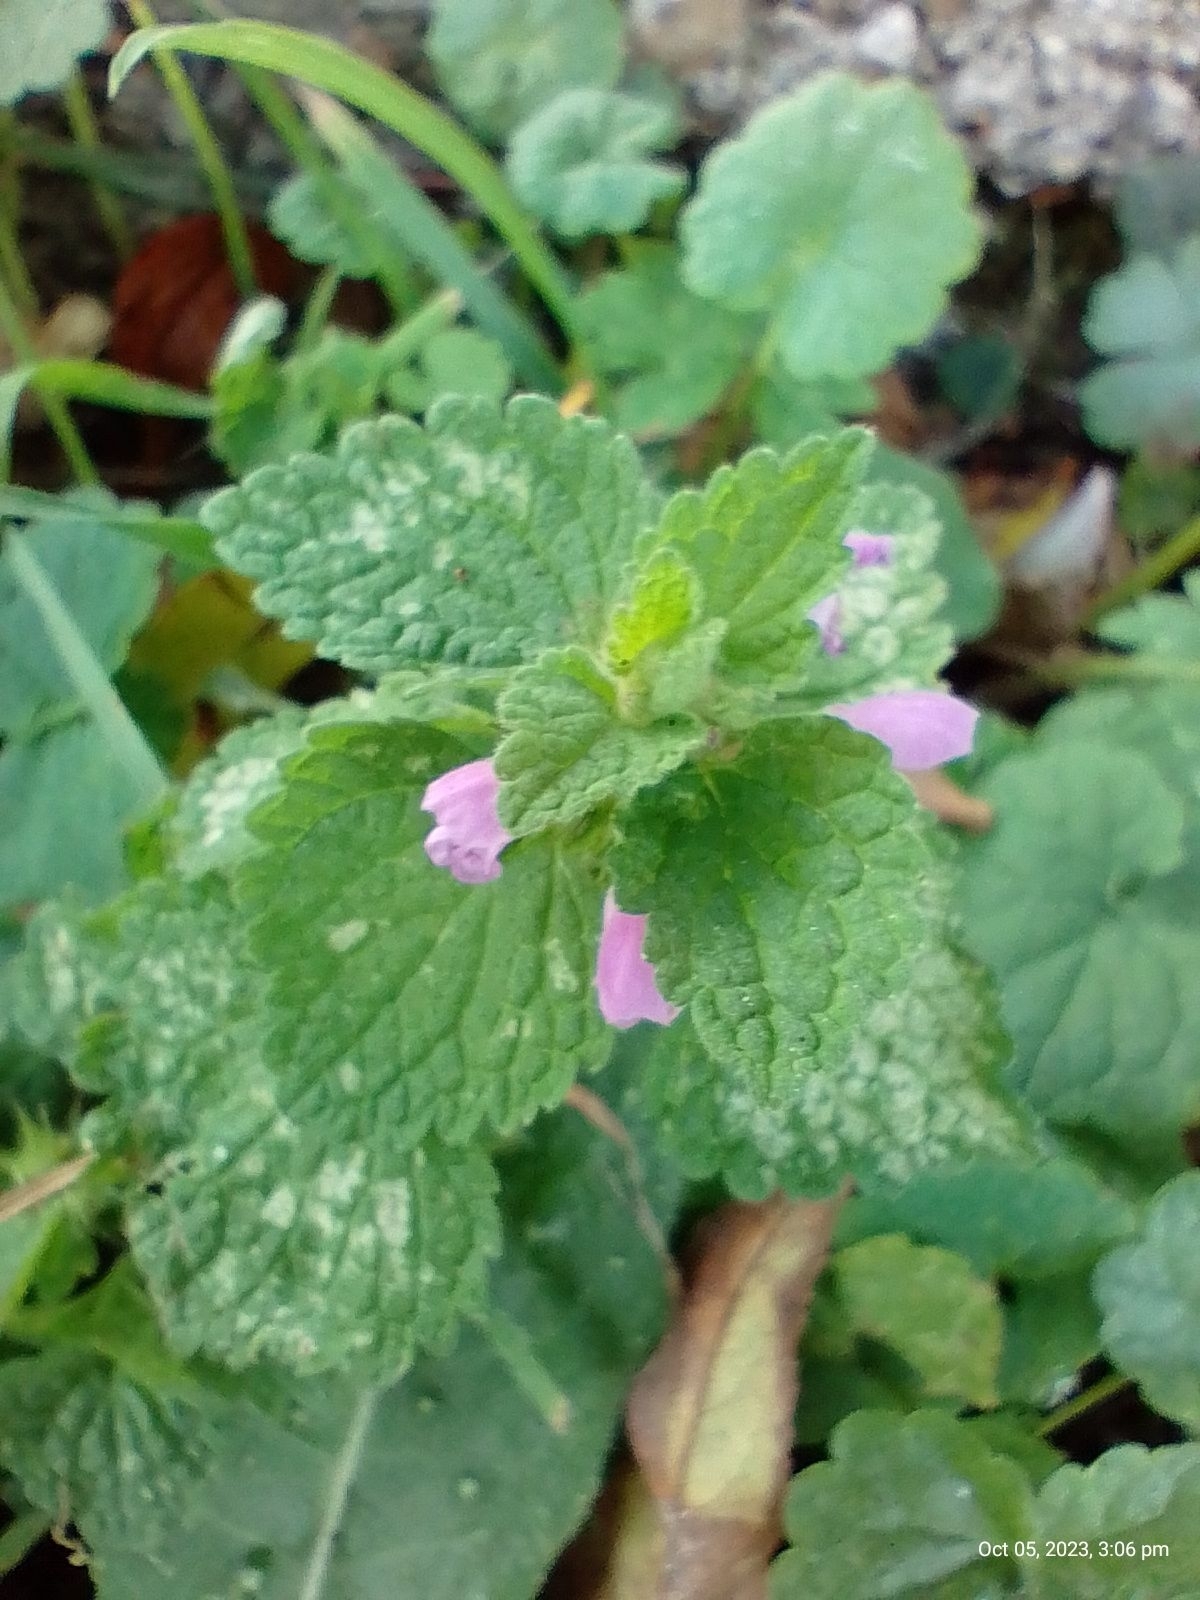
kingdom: Plantae
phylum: Tracheophyta
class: Magnoliopsida
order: Lamiales
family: Lamiaceae
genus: Lamium
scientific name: Lamium purpureum
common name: Red dead-nettle
